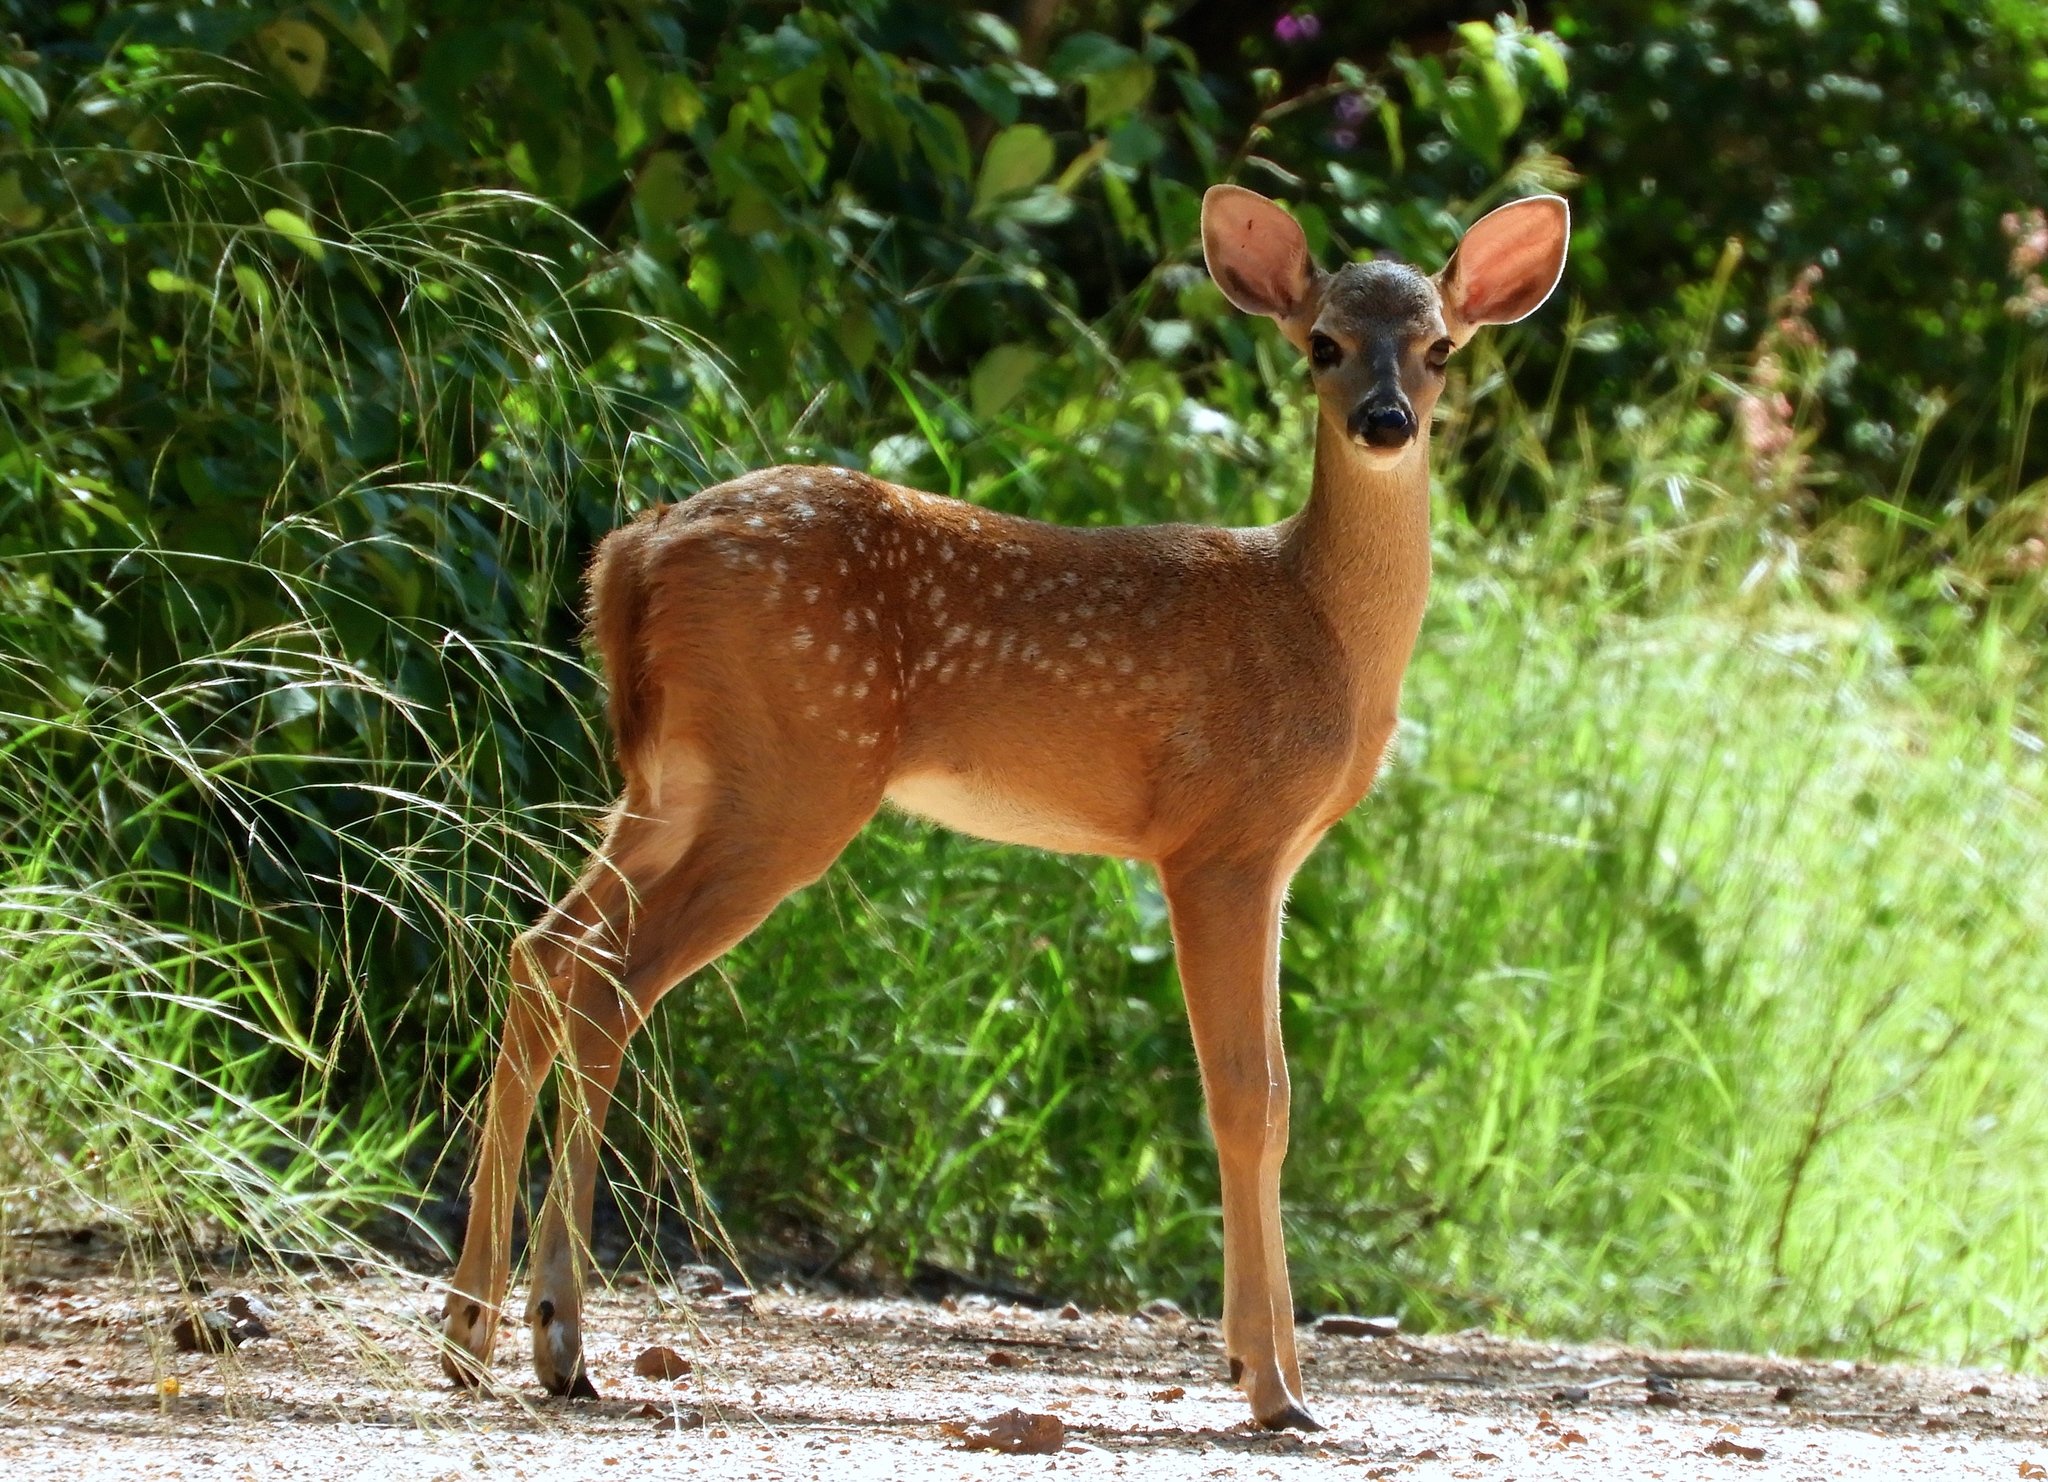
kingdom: Animalia
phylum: Chordata
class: Mammalia
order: Artiodactyla
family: Cervidae
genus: Odocoileus
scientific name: Odocoileus virginianus
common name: White-tailed deer
